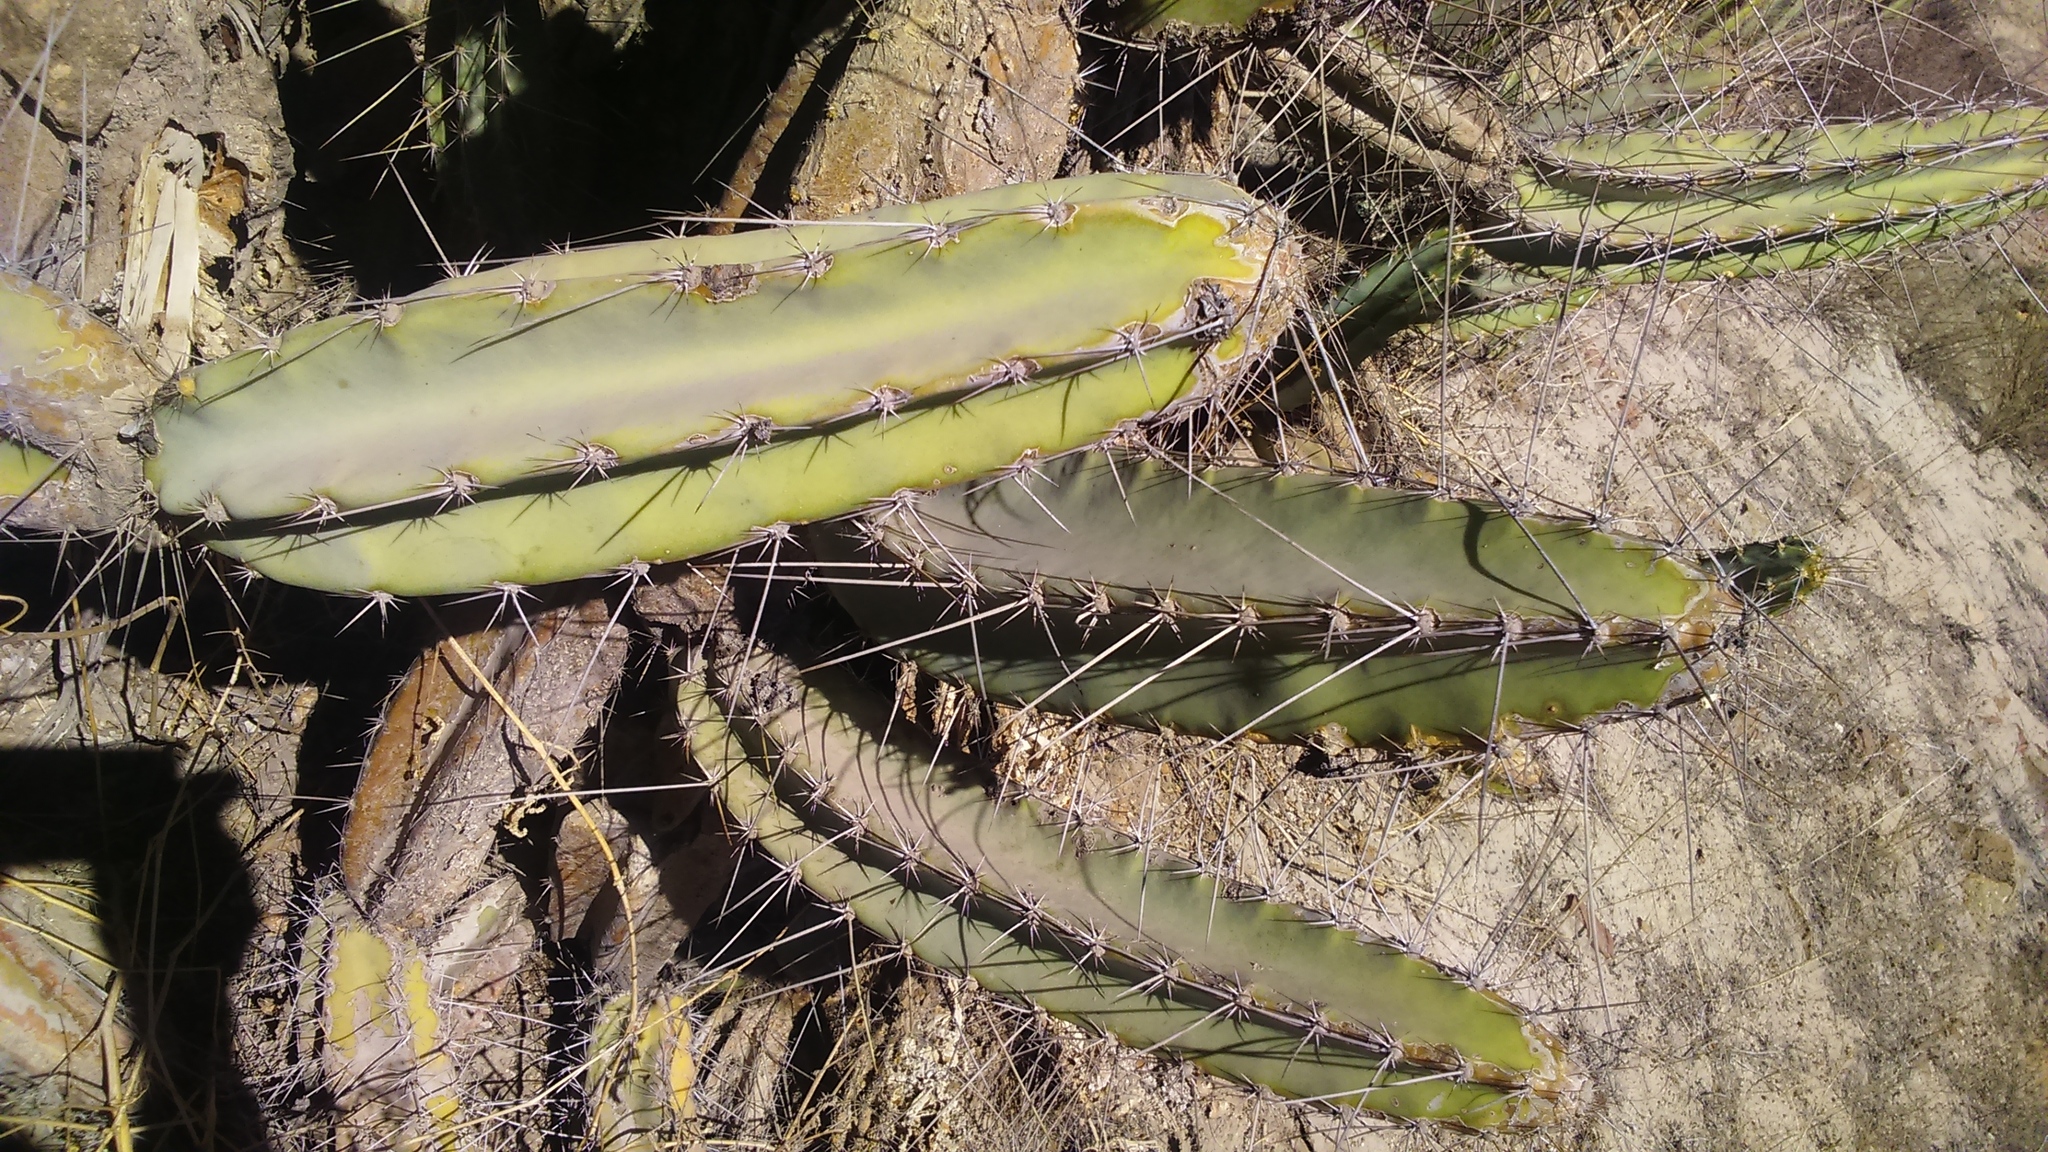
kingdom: Plantae
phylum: Tracheophyta
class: Magnoliopsida
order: Caryophyllales
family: Cactaceae
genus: Armatocereus
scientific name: Armatocereus riomajensis
